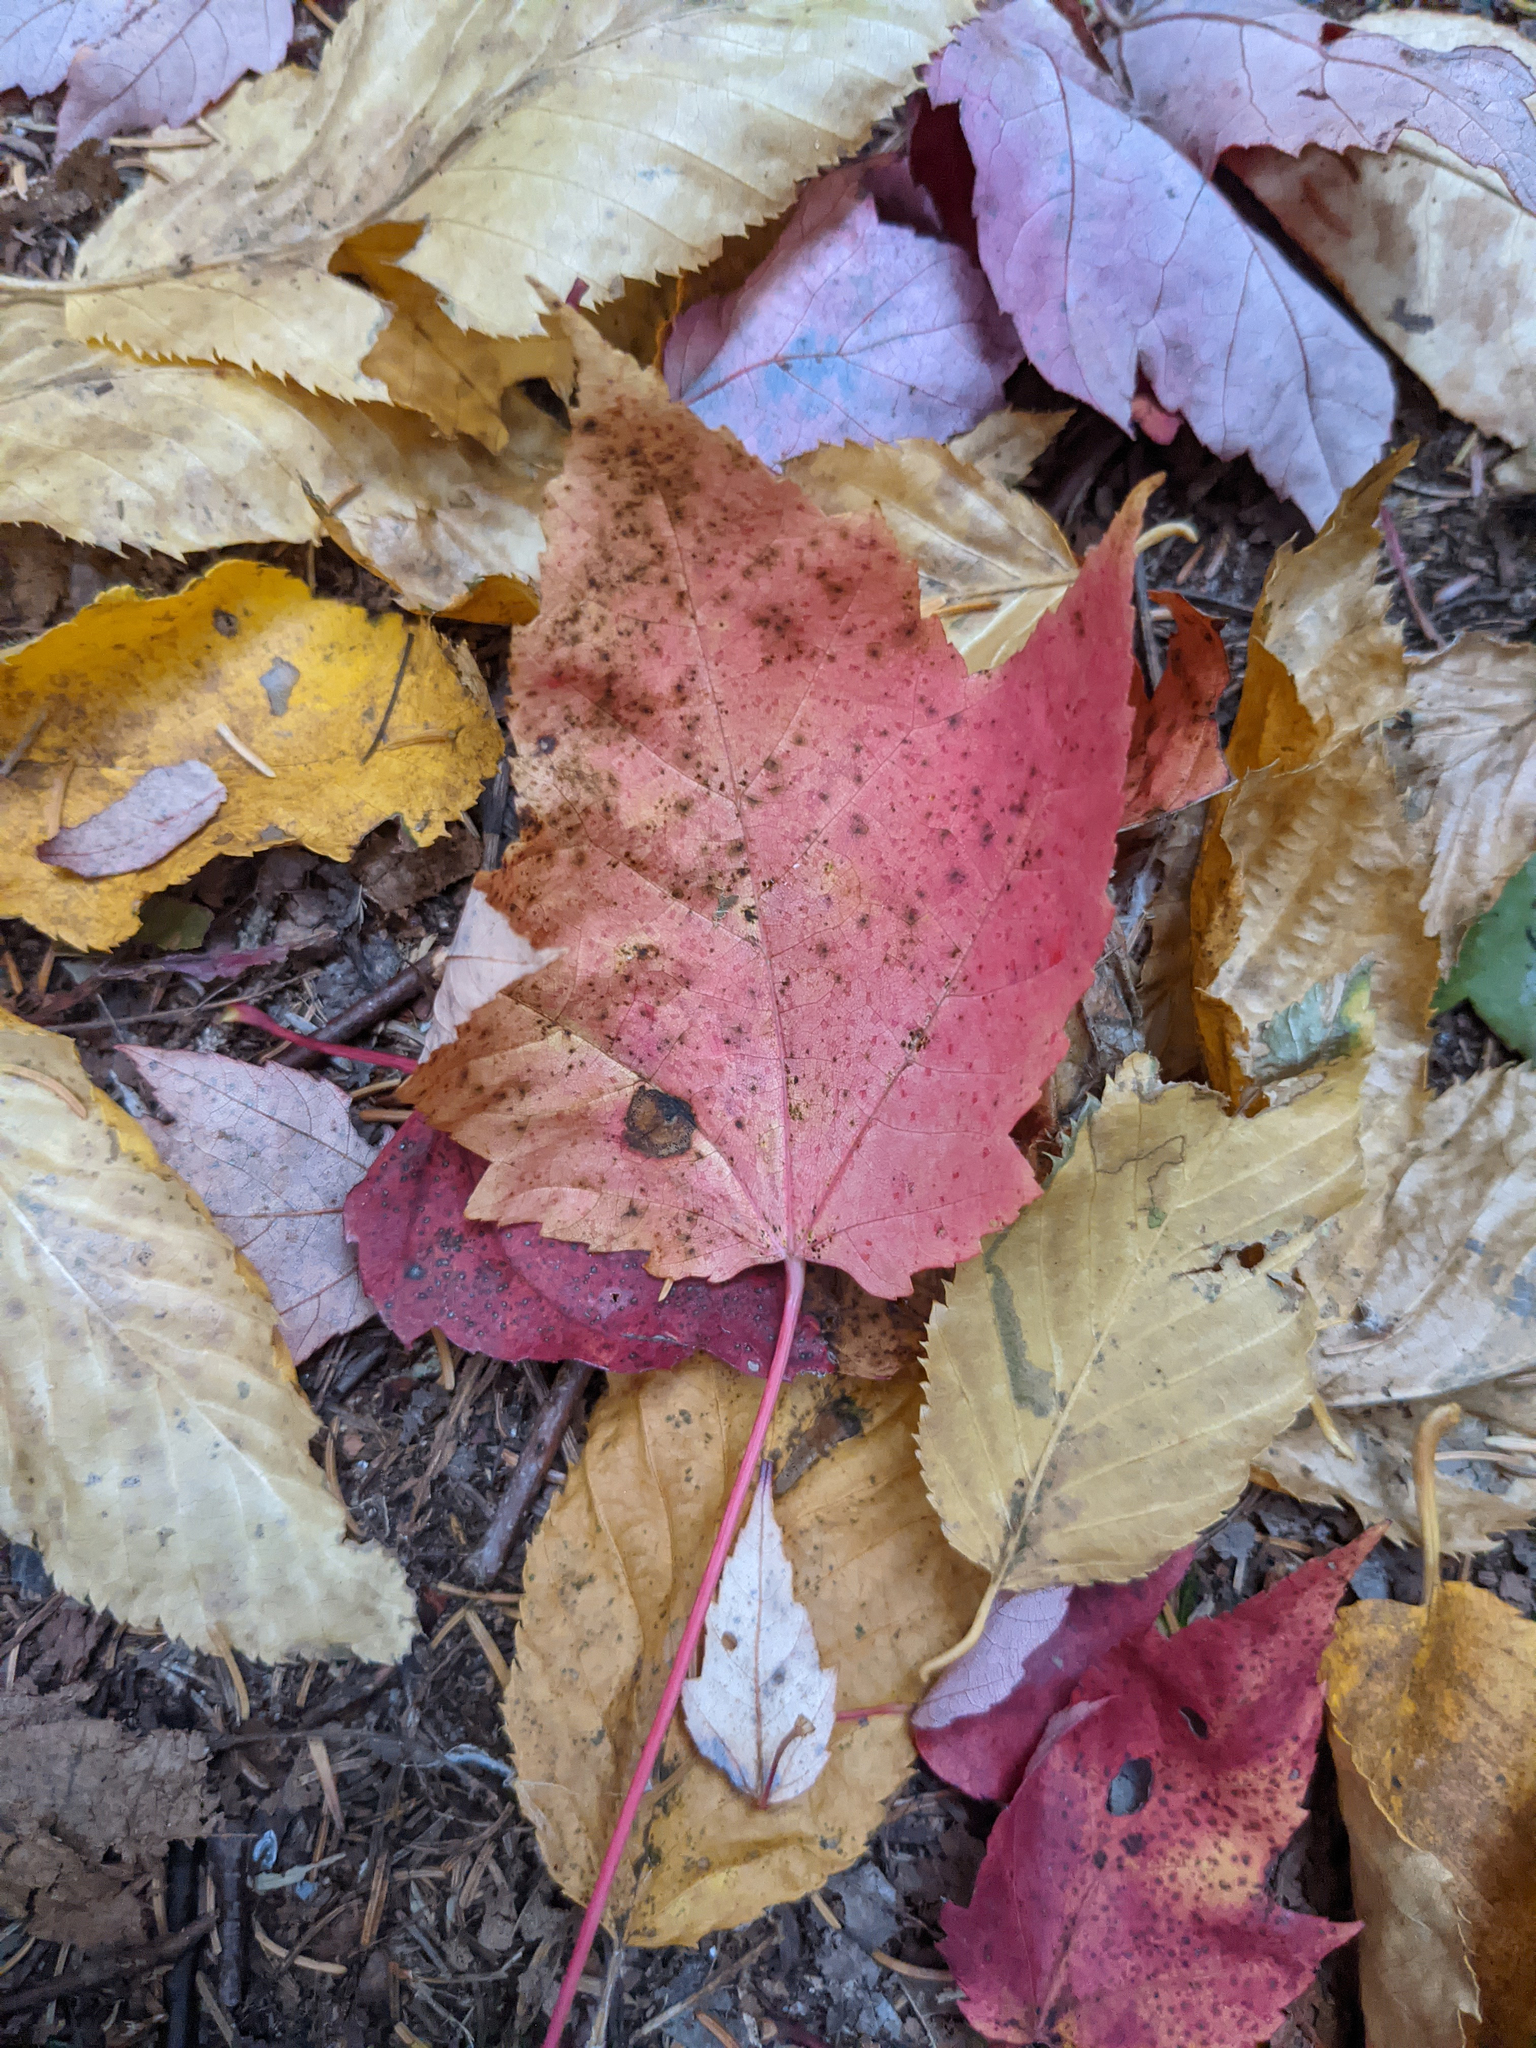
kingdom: Plantae
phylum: Tracheophyta
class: Magnoliopsida
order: Sapindales
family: Sapindaceae
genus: Acer
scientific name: Acer rubrum
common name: Red maple
